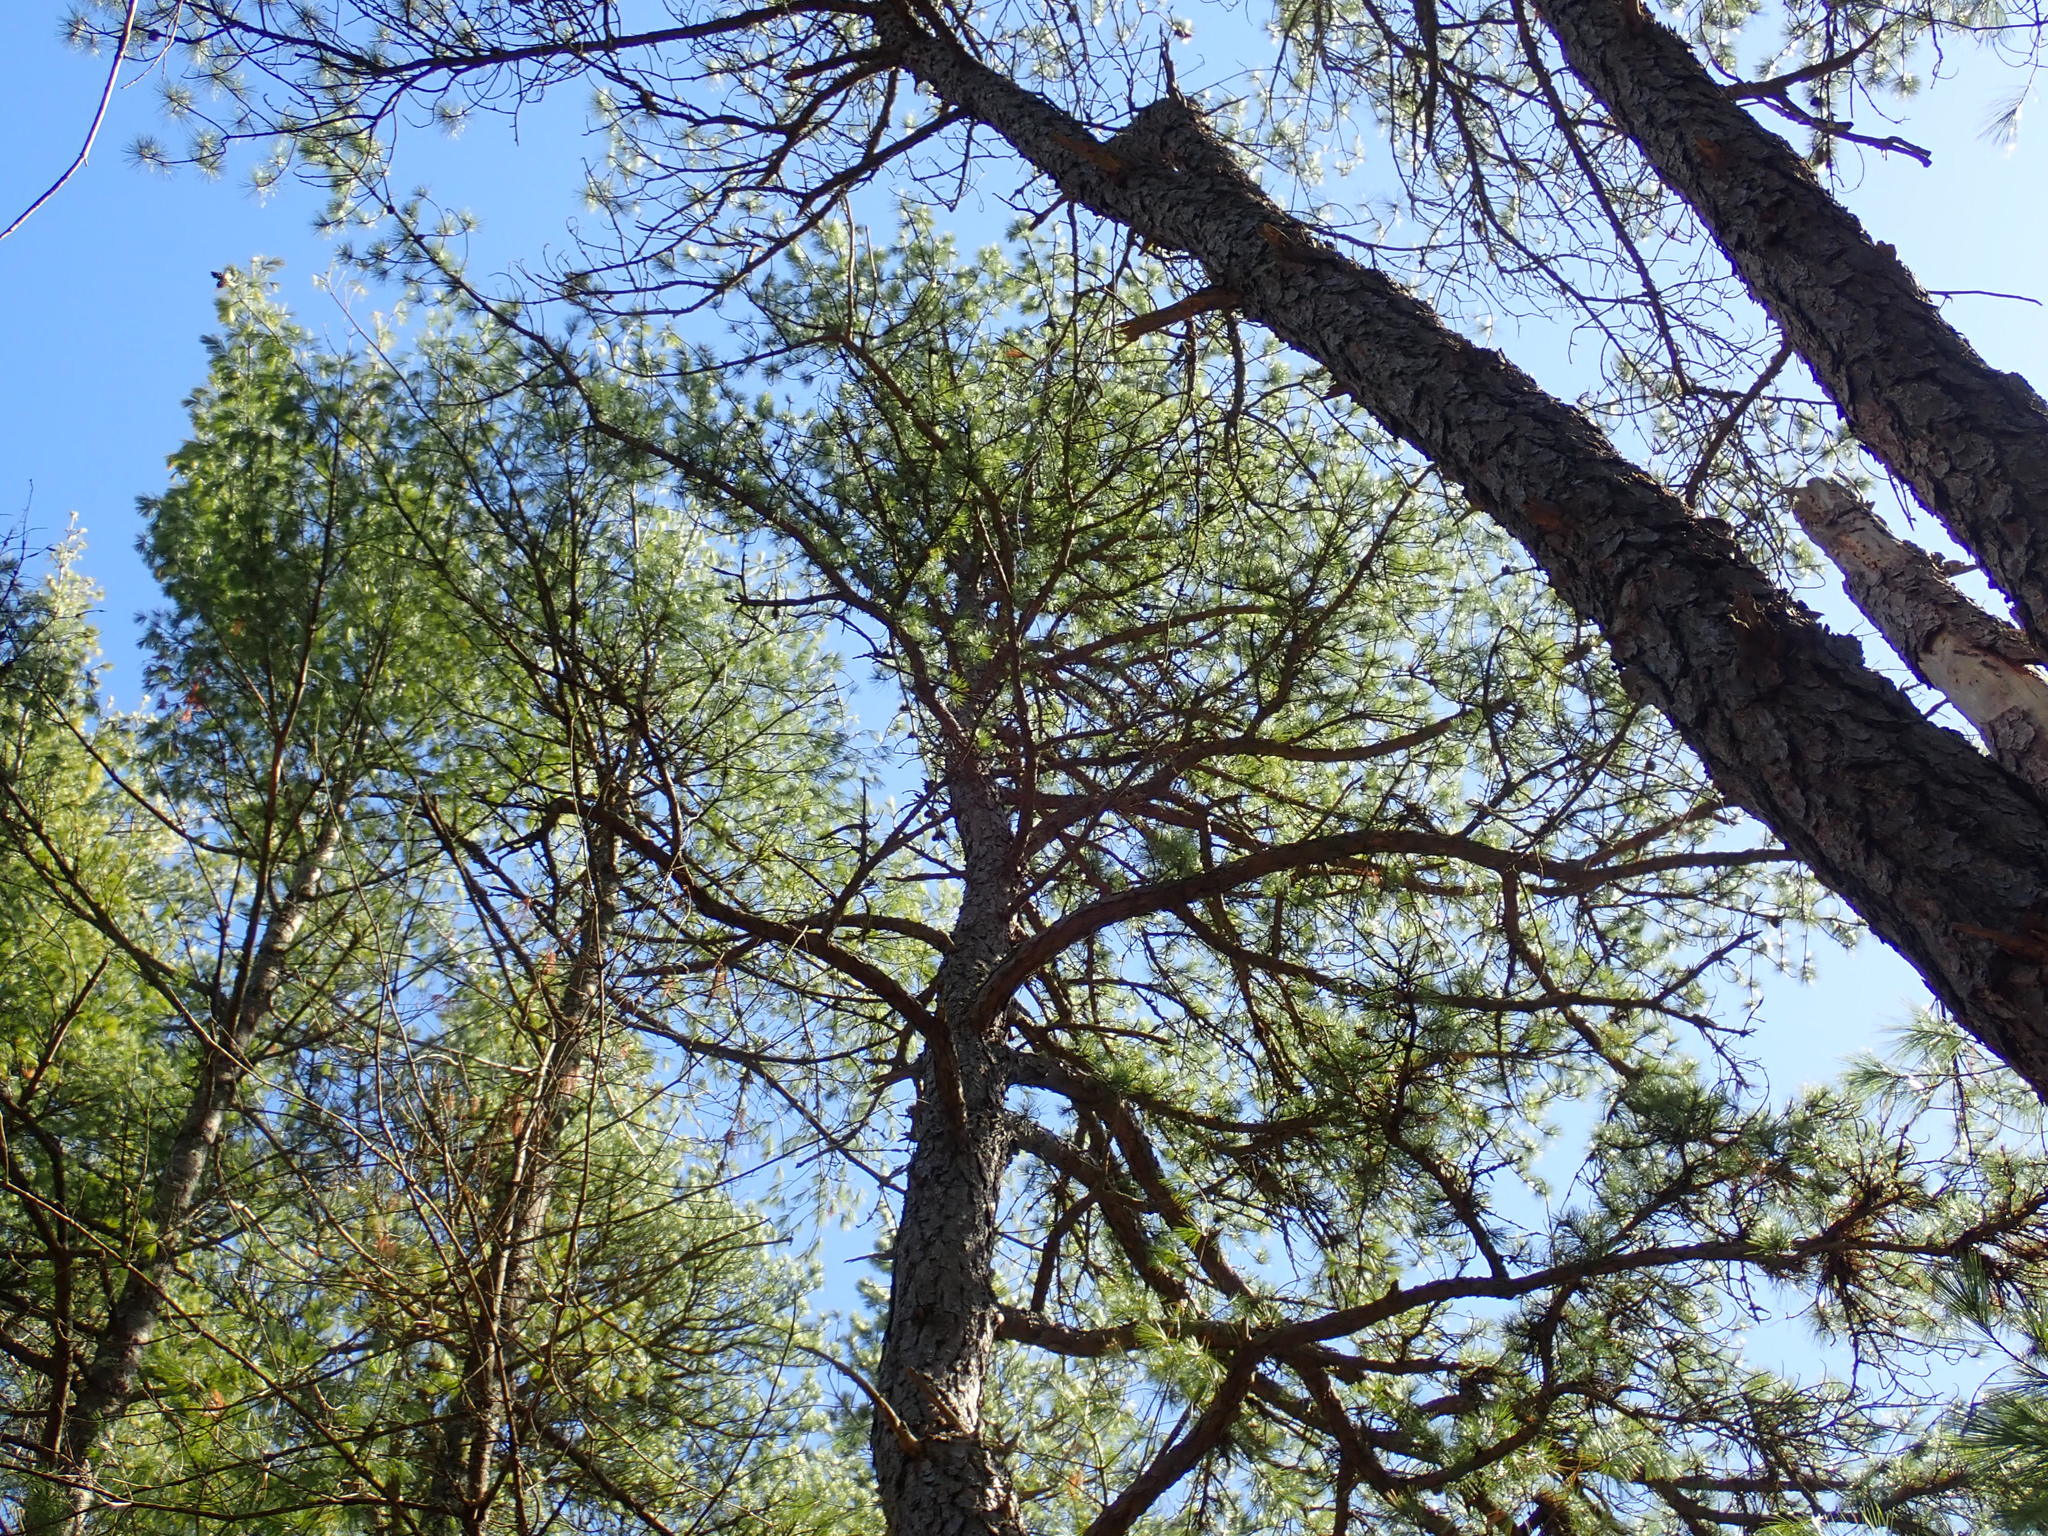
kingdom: Plantae
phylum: Tracheophyta
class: Pinopsida
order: Pinales
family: Pinaceae
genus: Pinus
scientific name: Pinus rigida
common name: Pitch pine
